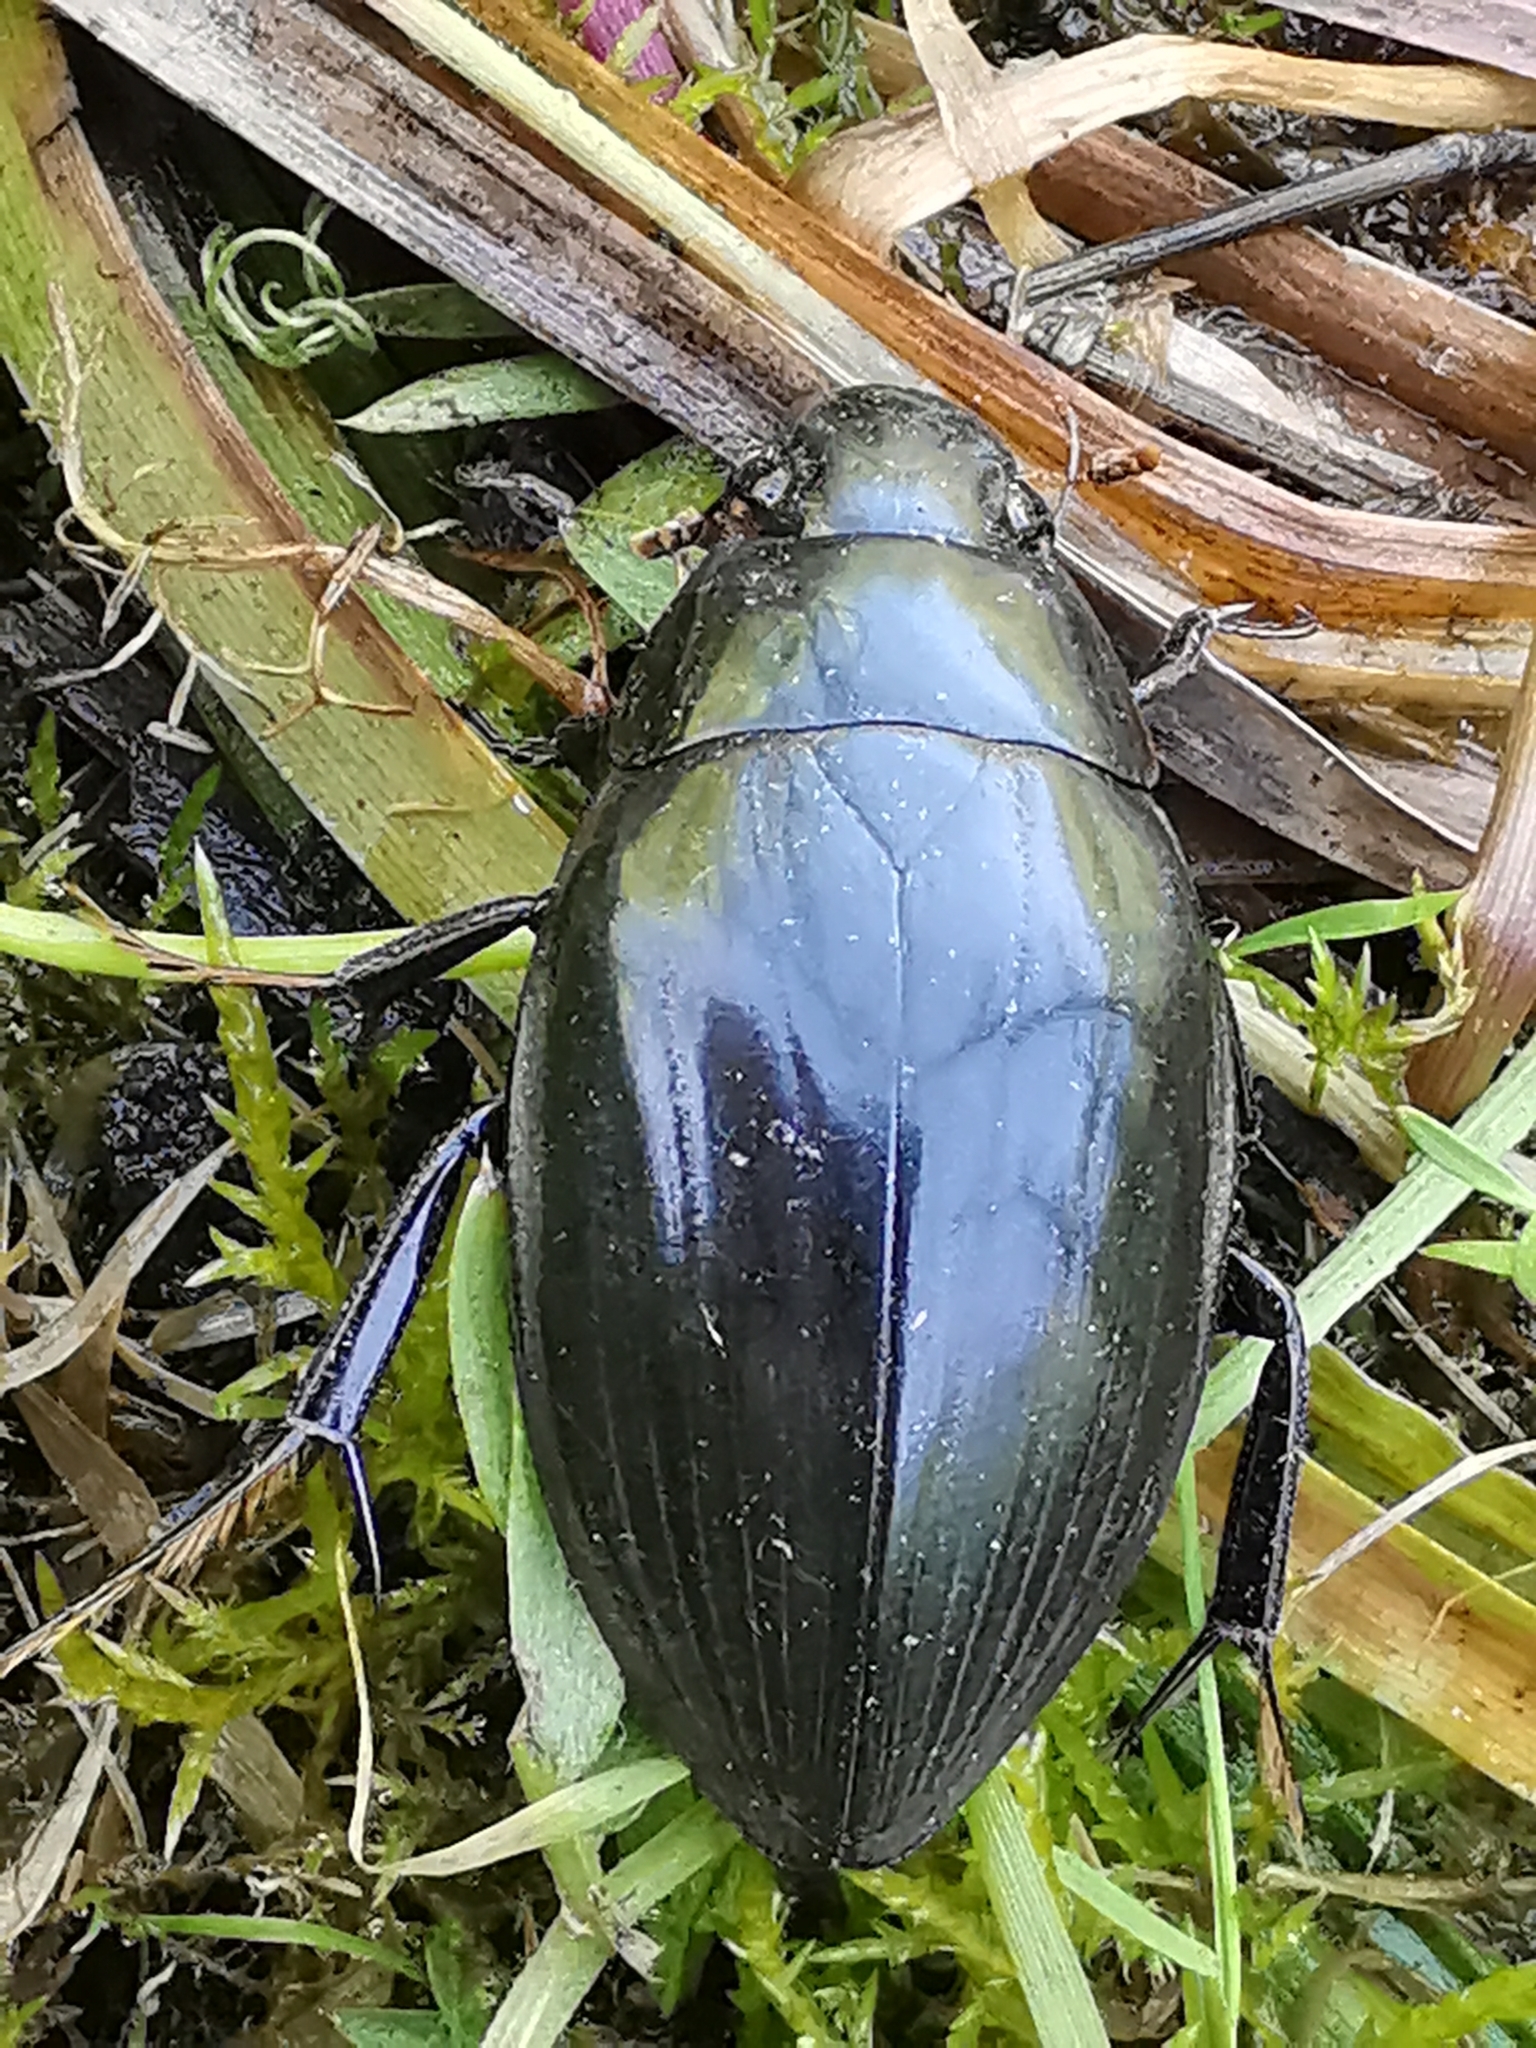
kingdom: Animalia
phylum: Arthropoda
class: Insecta
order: Coleoptera
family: Hydrophilidae
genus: Hydrophilus
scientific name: Hydrophilus piceus
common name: Great silver water beetle
